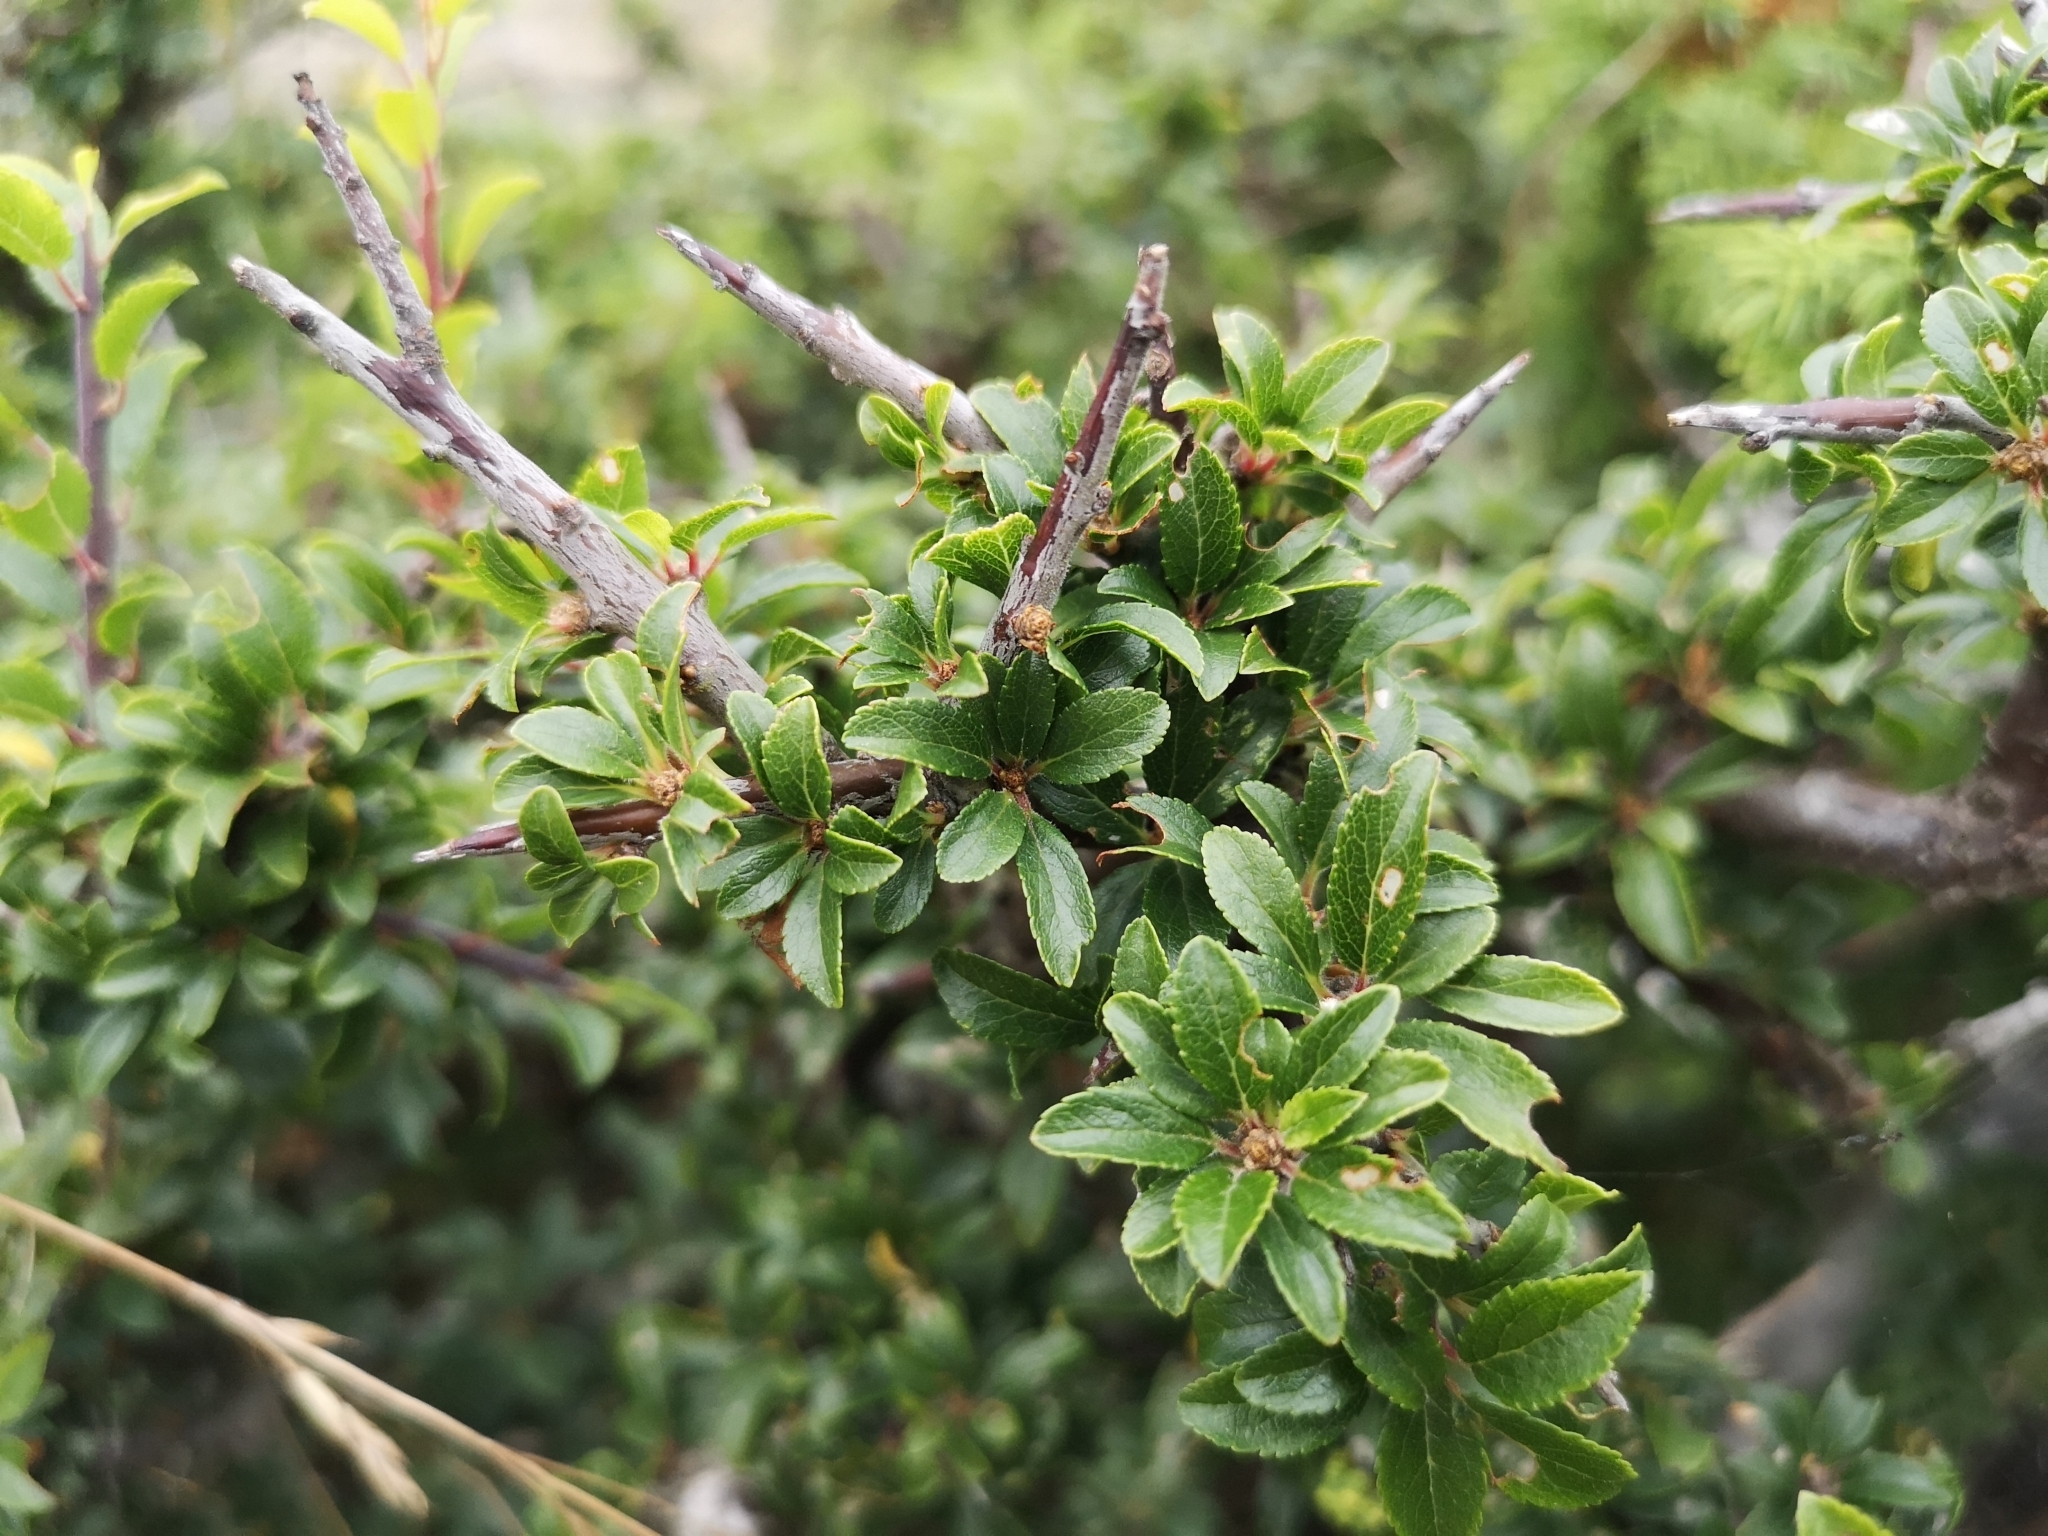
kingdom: Plantae
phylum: Tracheophyta
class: Magnoliopsida
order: Rosales
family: Rosaceae
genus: Prunus
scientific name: Prunus spinosa
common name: Blackthorn
